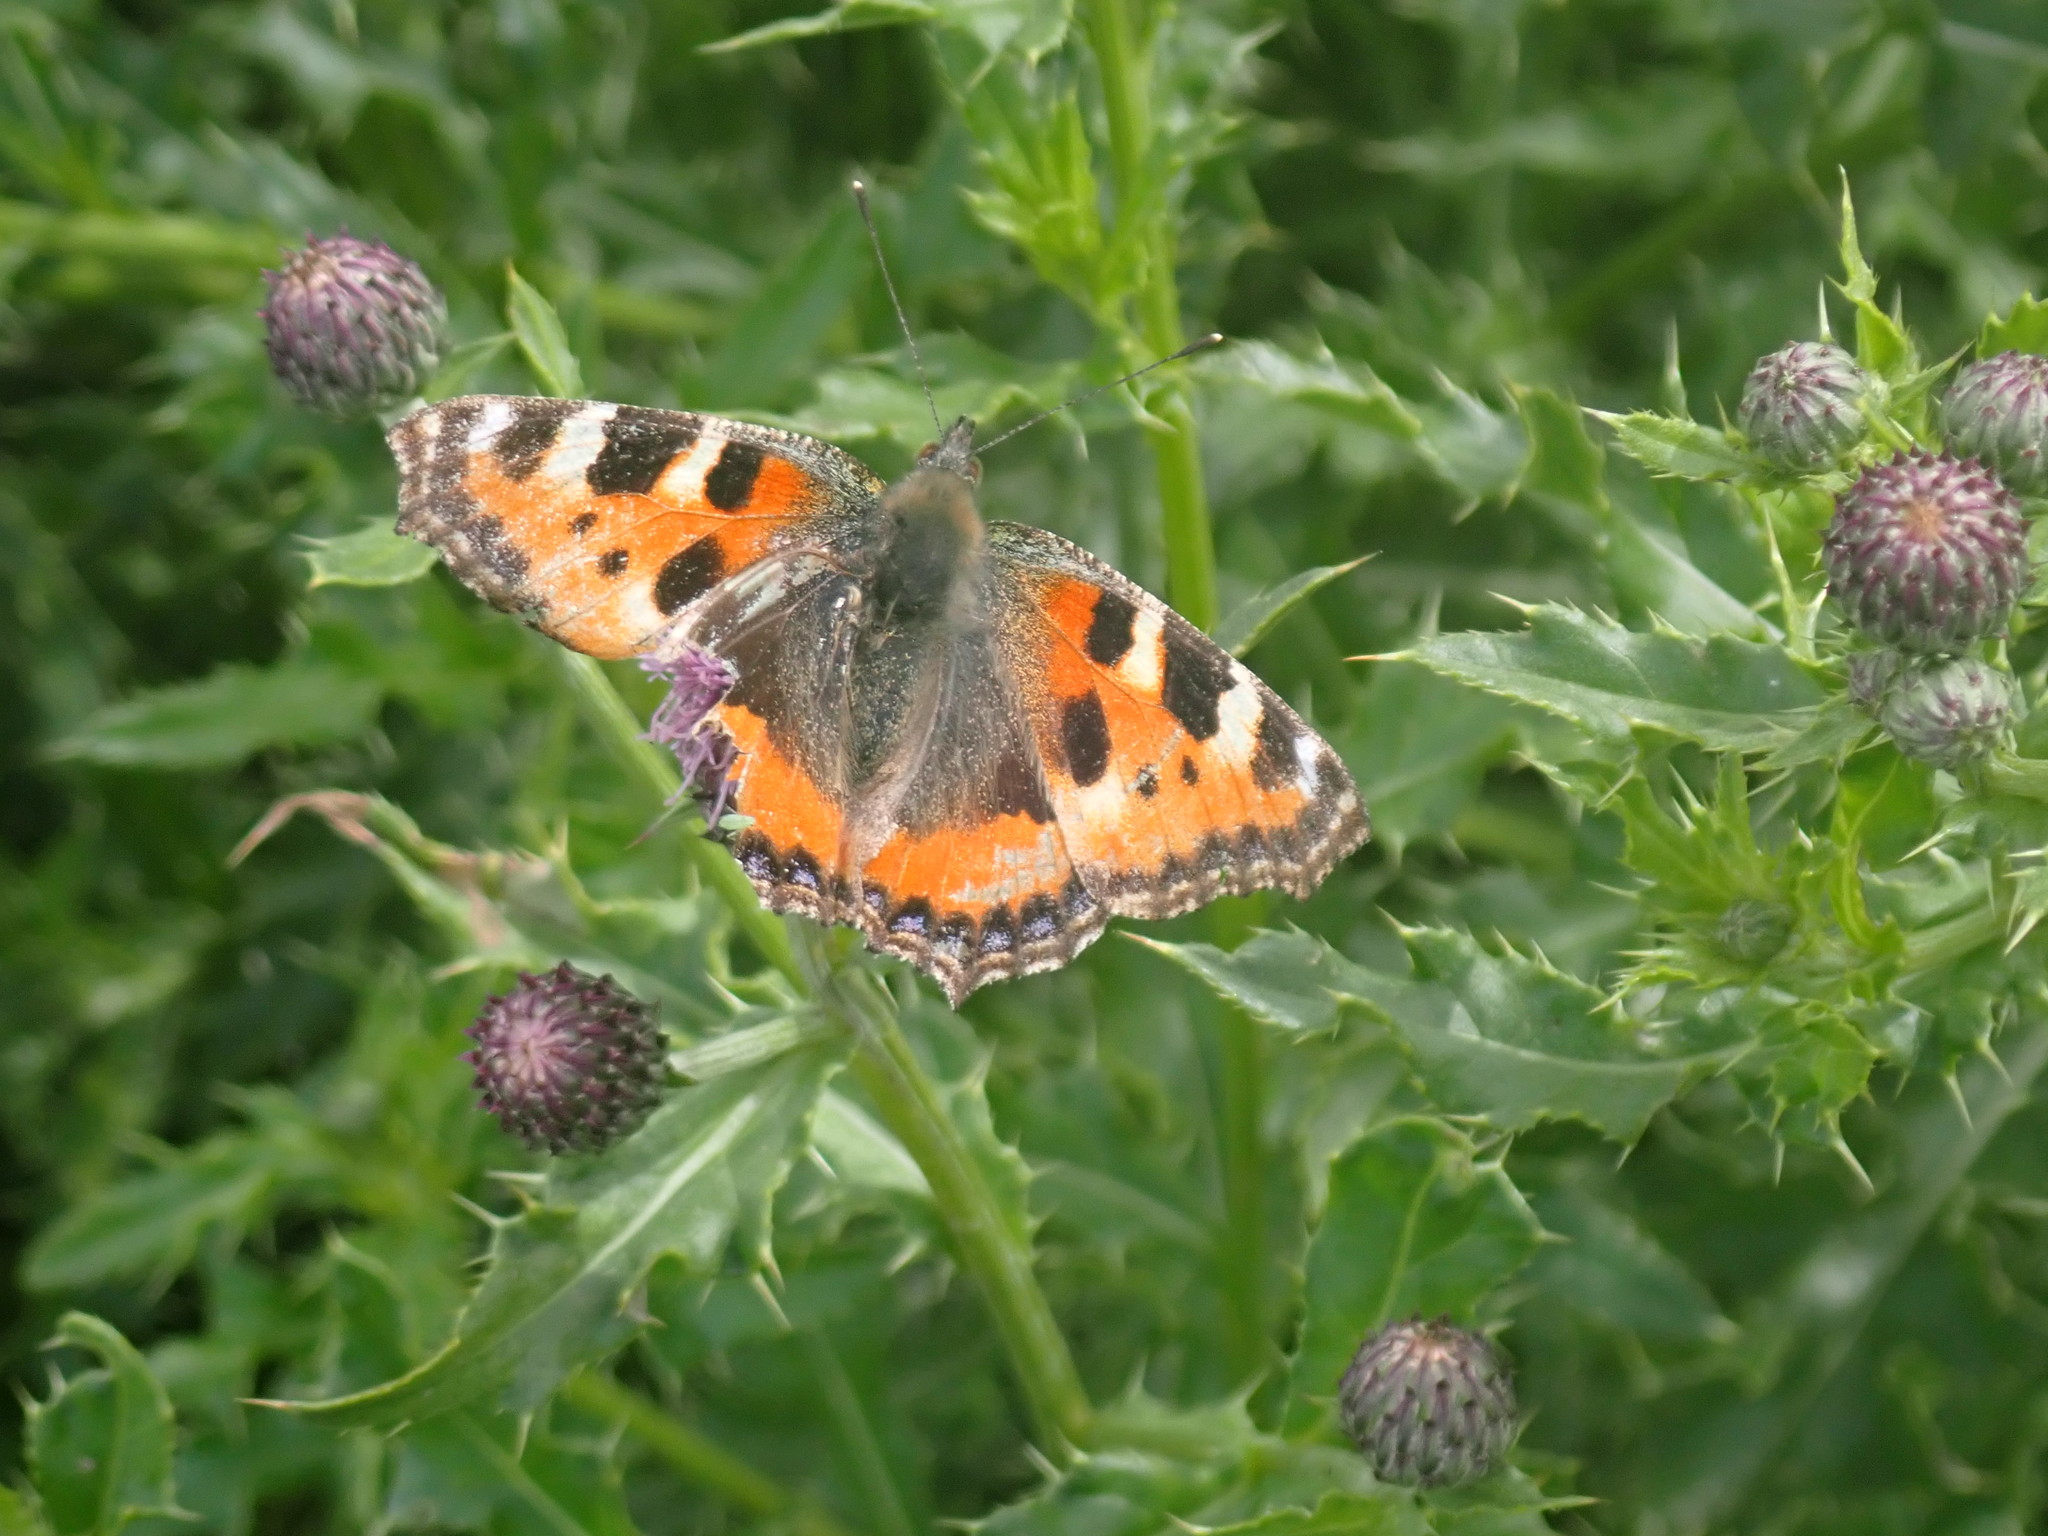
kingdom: Animalia
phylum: Arthropoda
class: Insecta
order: Lepidoptera
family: Nymphalidae
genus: Aglais
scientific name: Aglais urticae
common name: Small tortoiseshell
